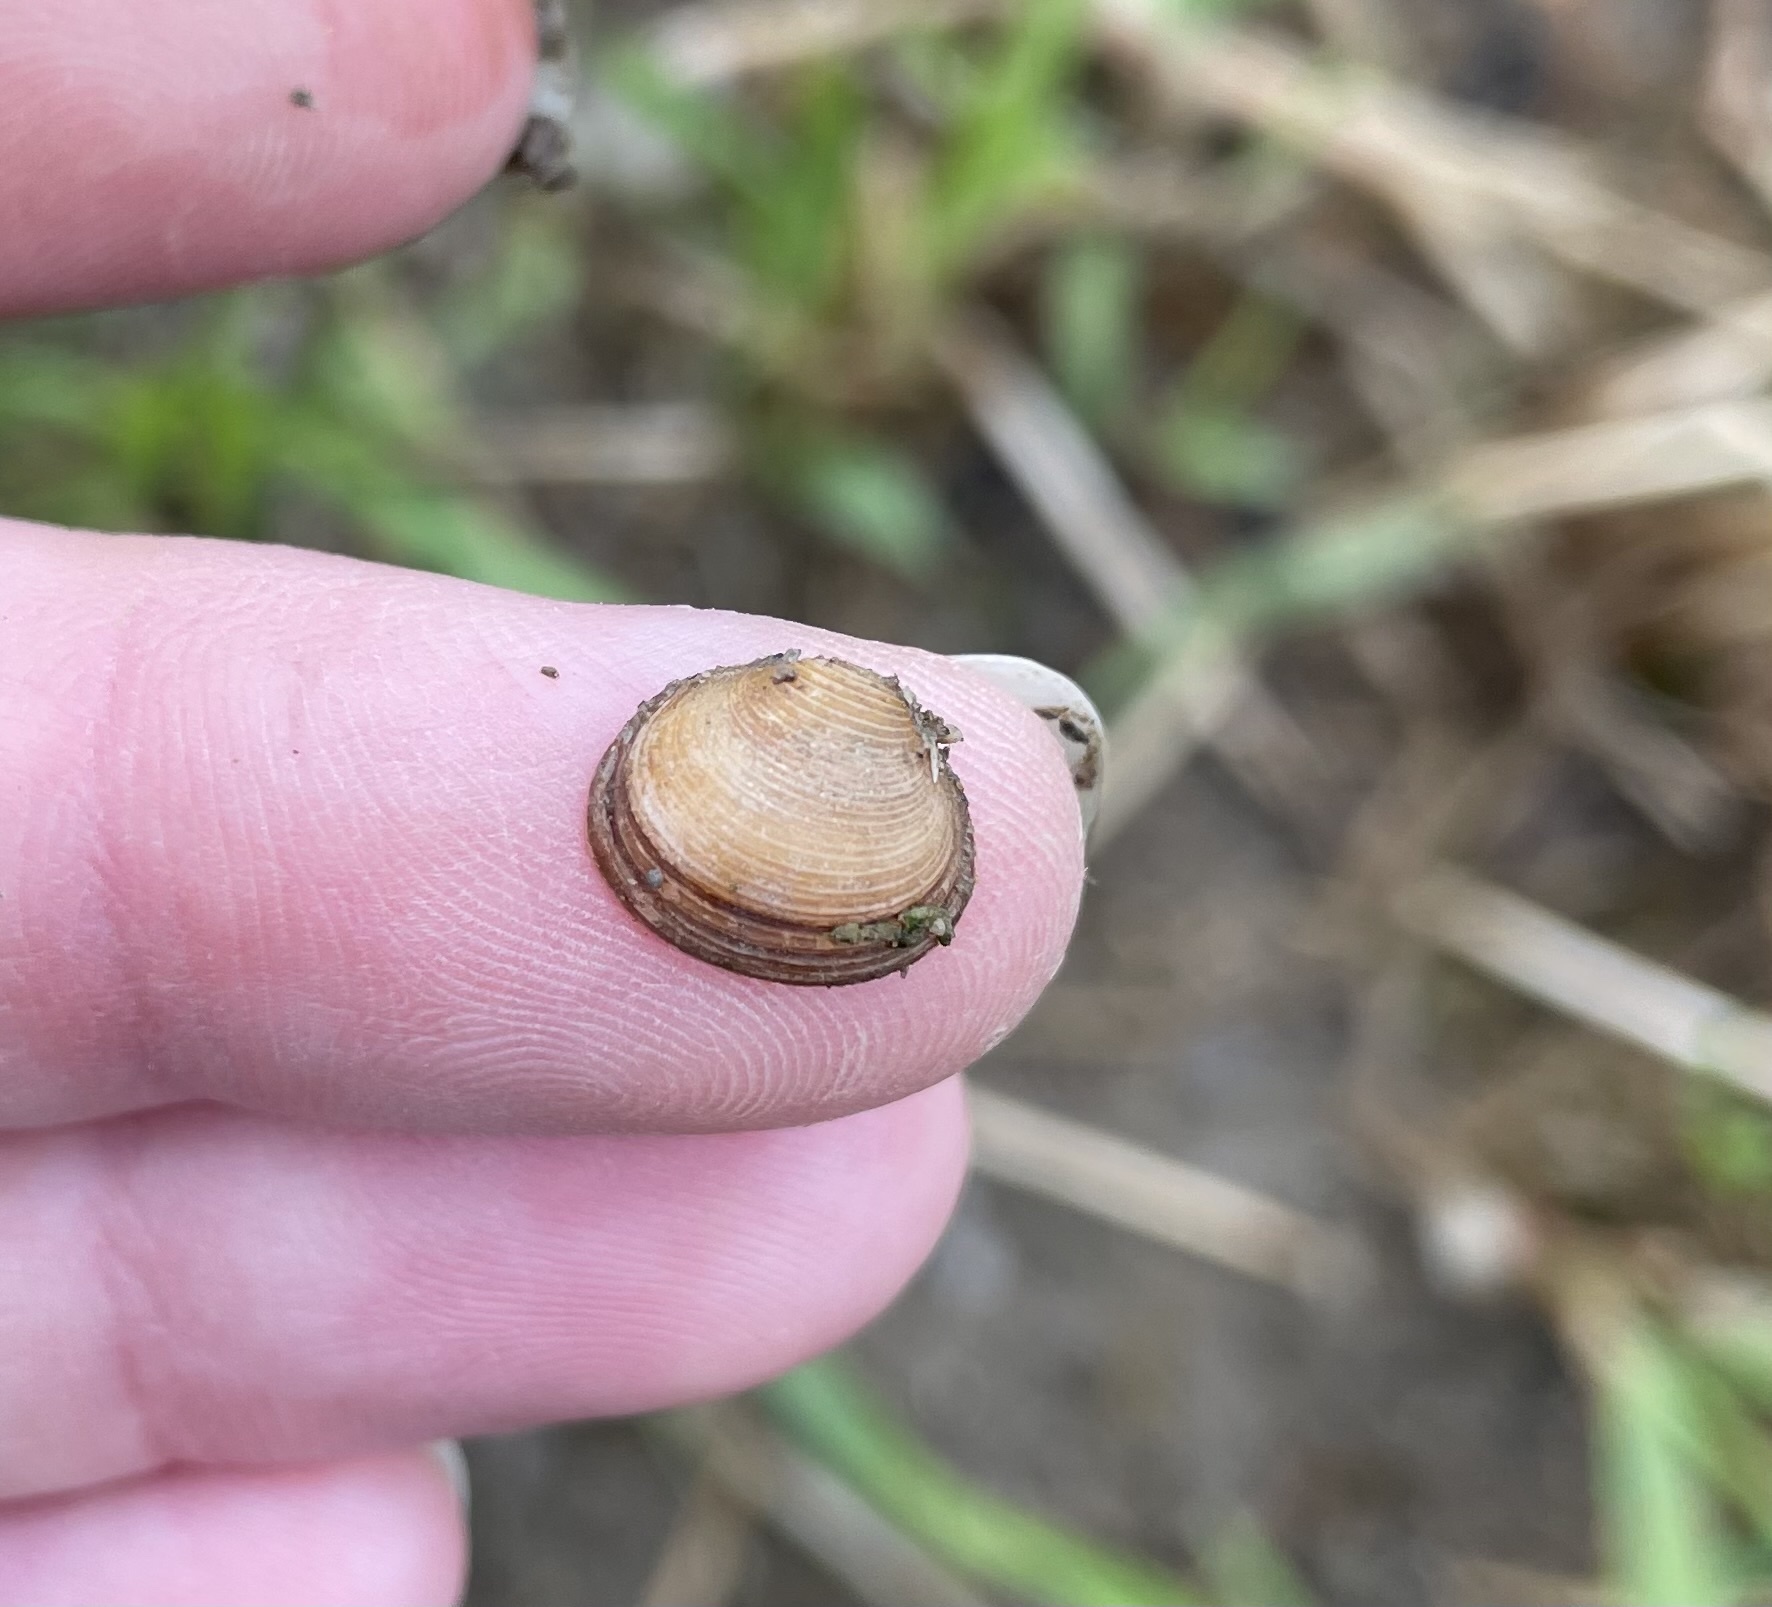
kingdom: Animalia
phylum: Mollusca
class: Bivalvia
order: Sphaeriida
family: Sphaeriidae
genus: Sphaerium
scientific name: Sphaerium striatinum
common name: Striated fingernailclam
